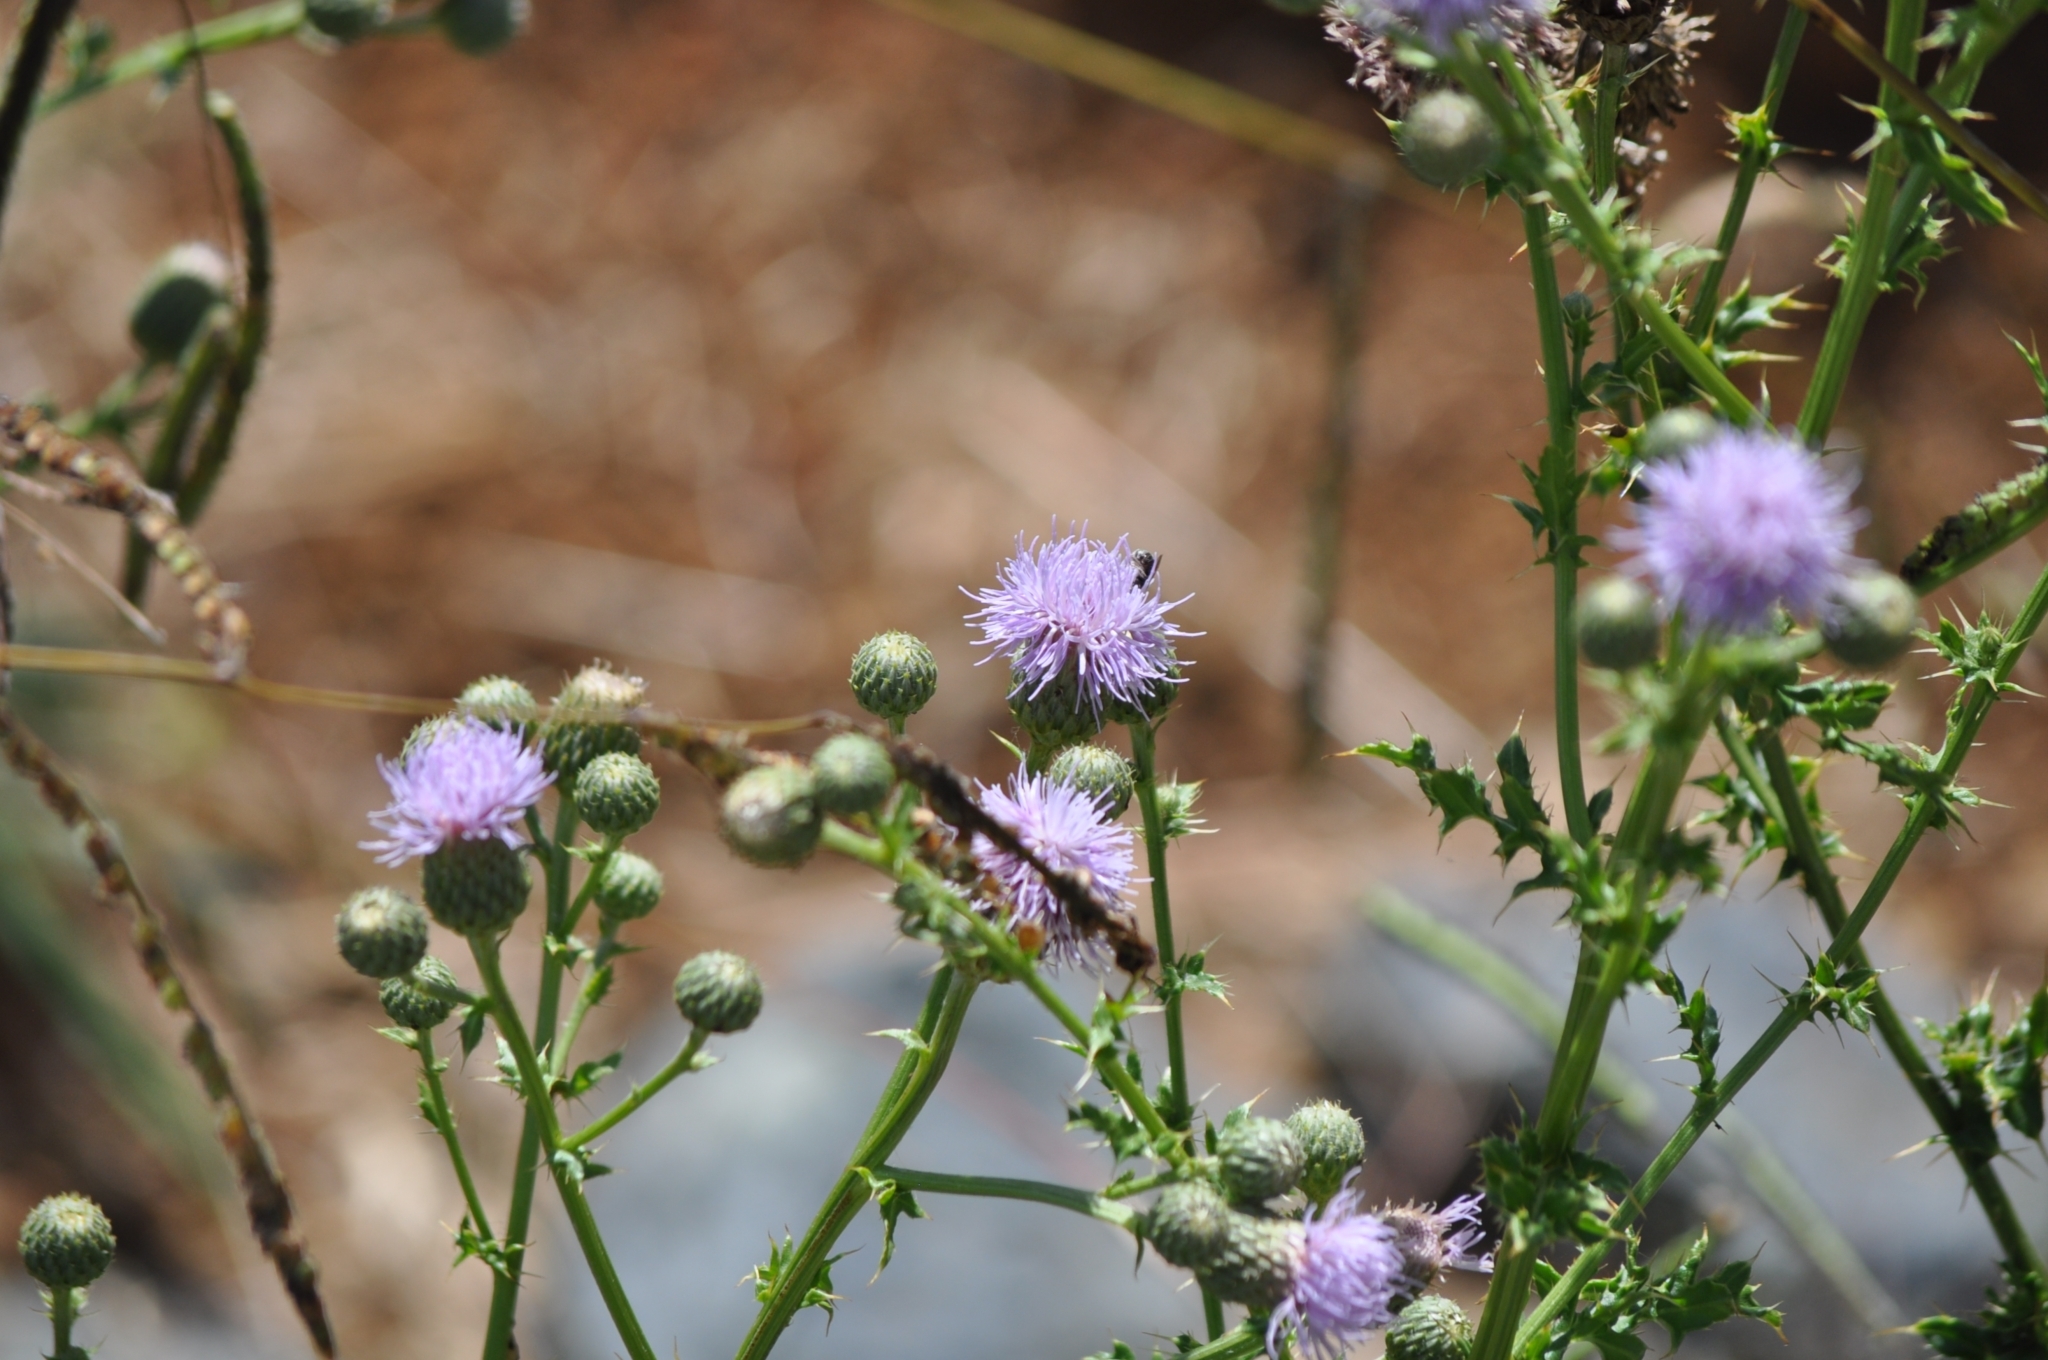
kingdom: Plantae
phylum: Tracheophyta
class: Magnoliopsida
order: Asterales
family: Asteraceae
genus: Cirsium
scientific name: Cirsium arvense
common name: Creeping thistle
